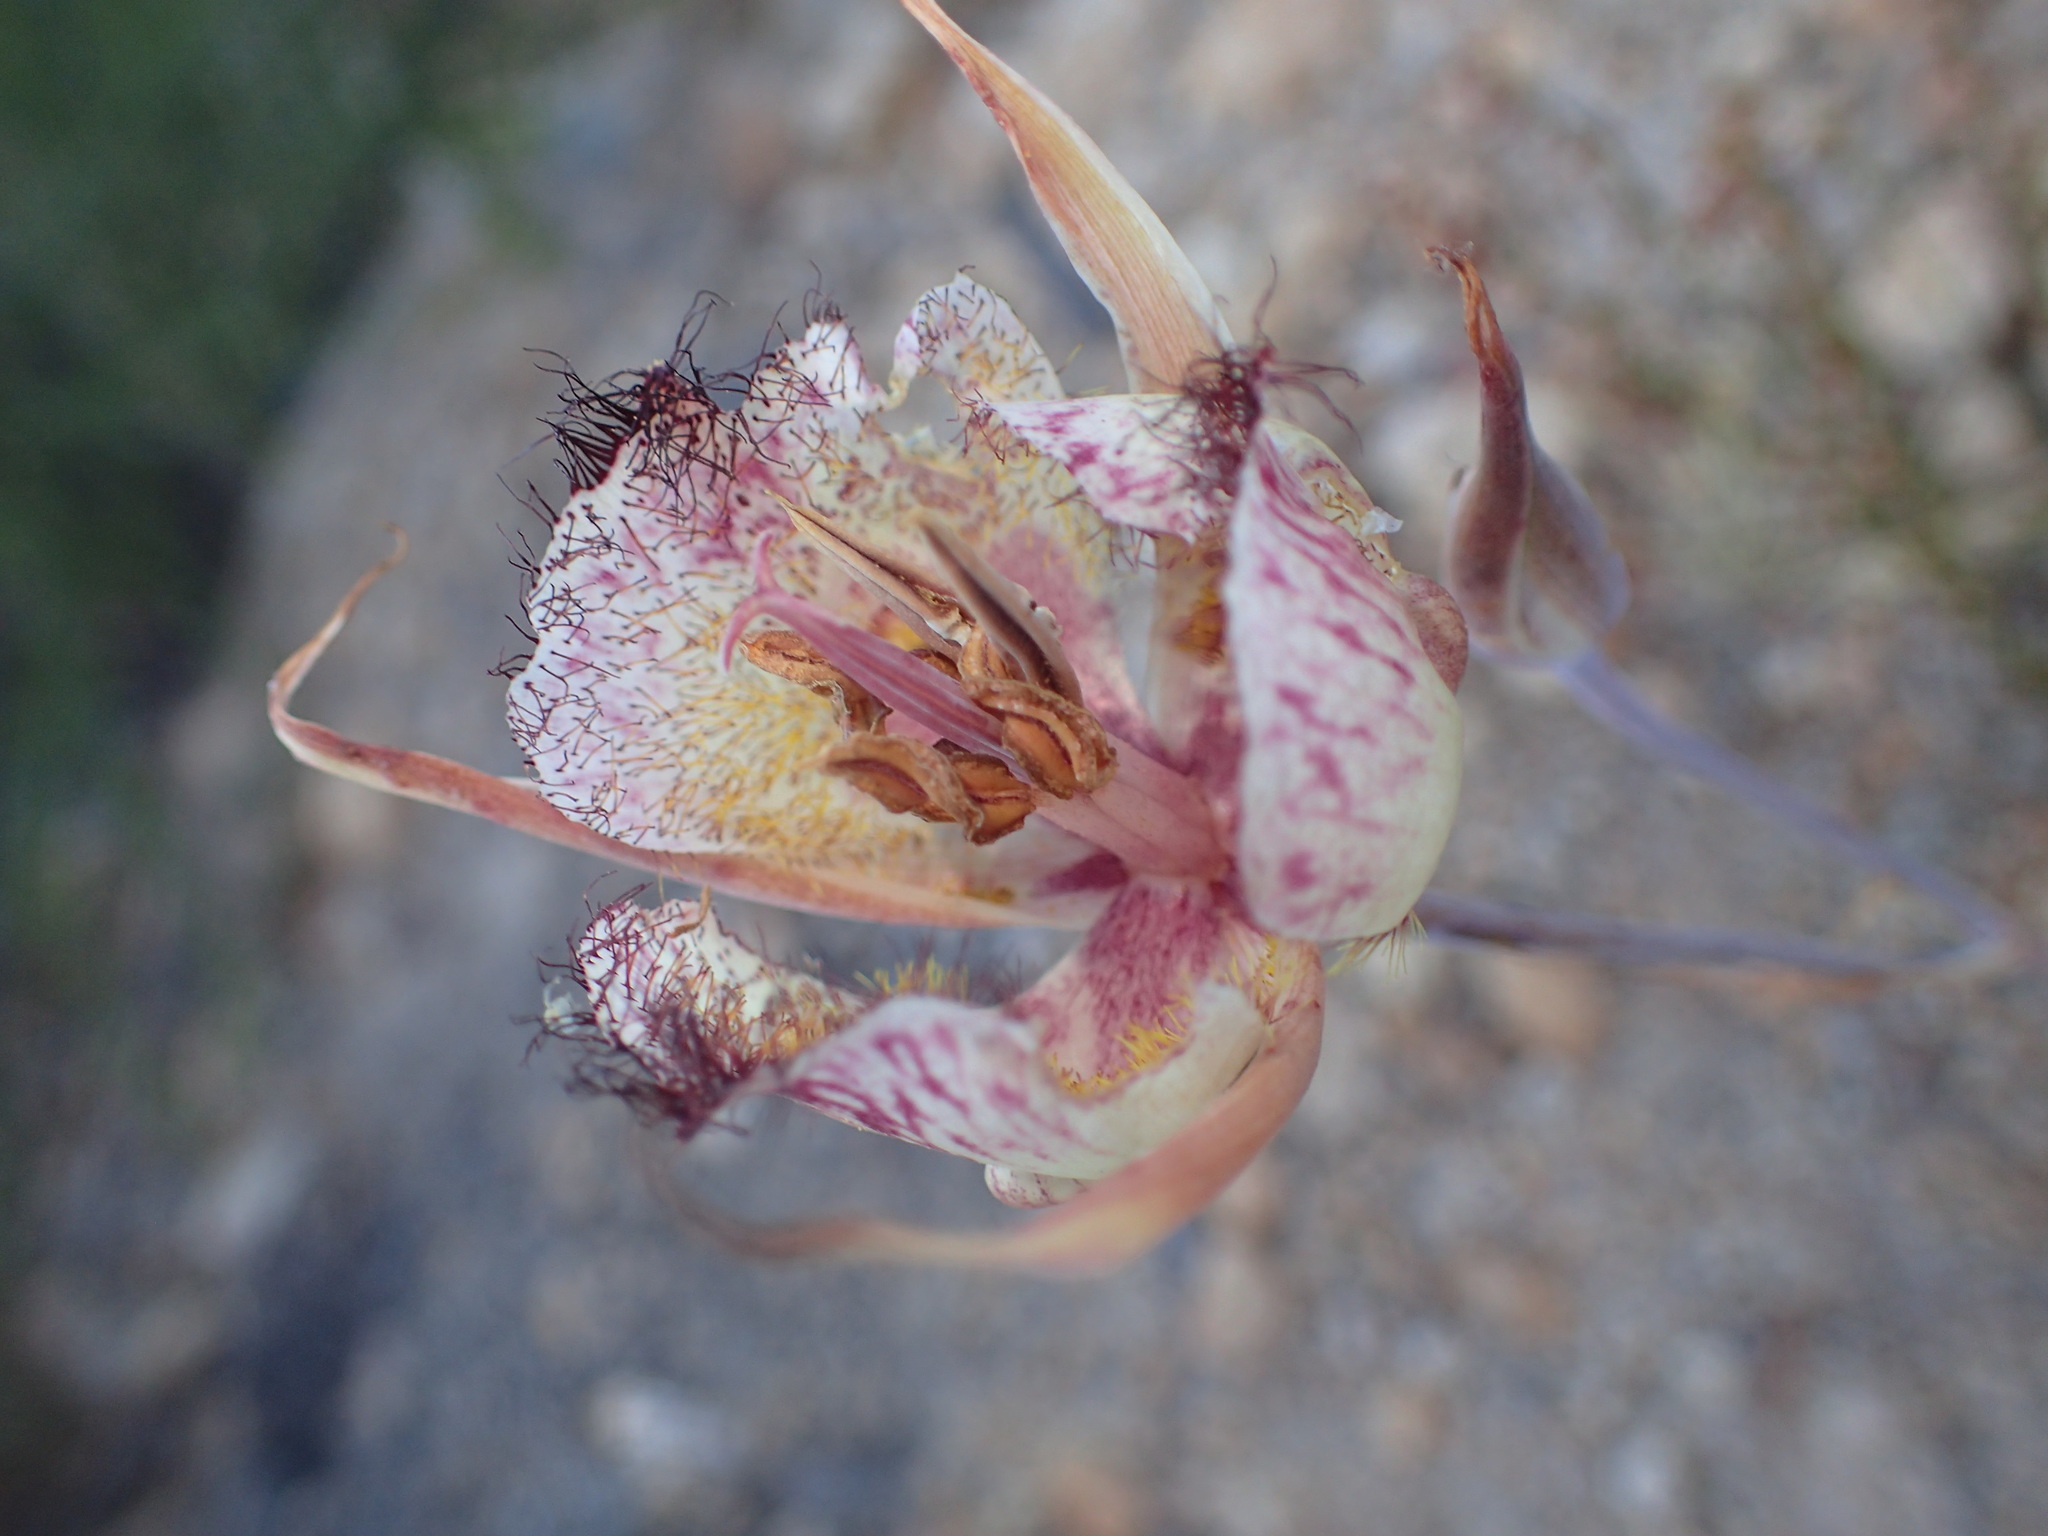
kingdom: Plantae
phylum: Tracheophyta
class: Liliopsida
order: Liliales
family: Liliaceae
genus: Calochortus
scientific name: Calochortus fimbriatus
